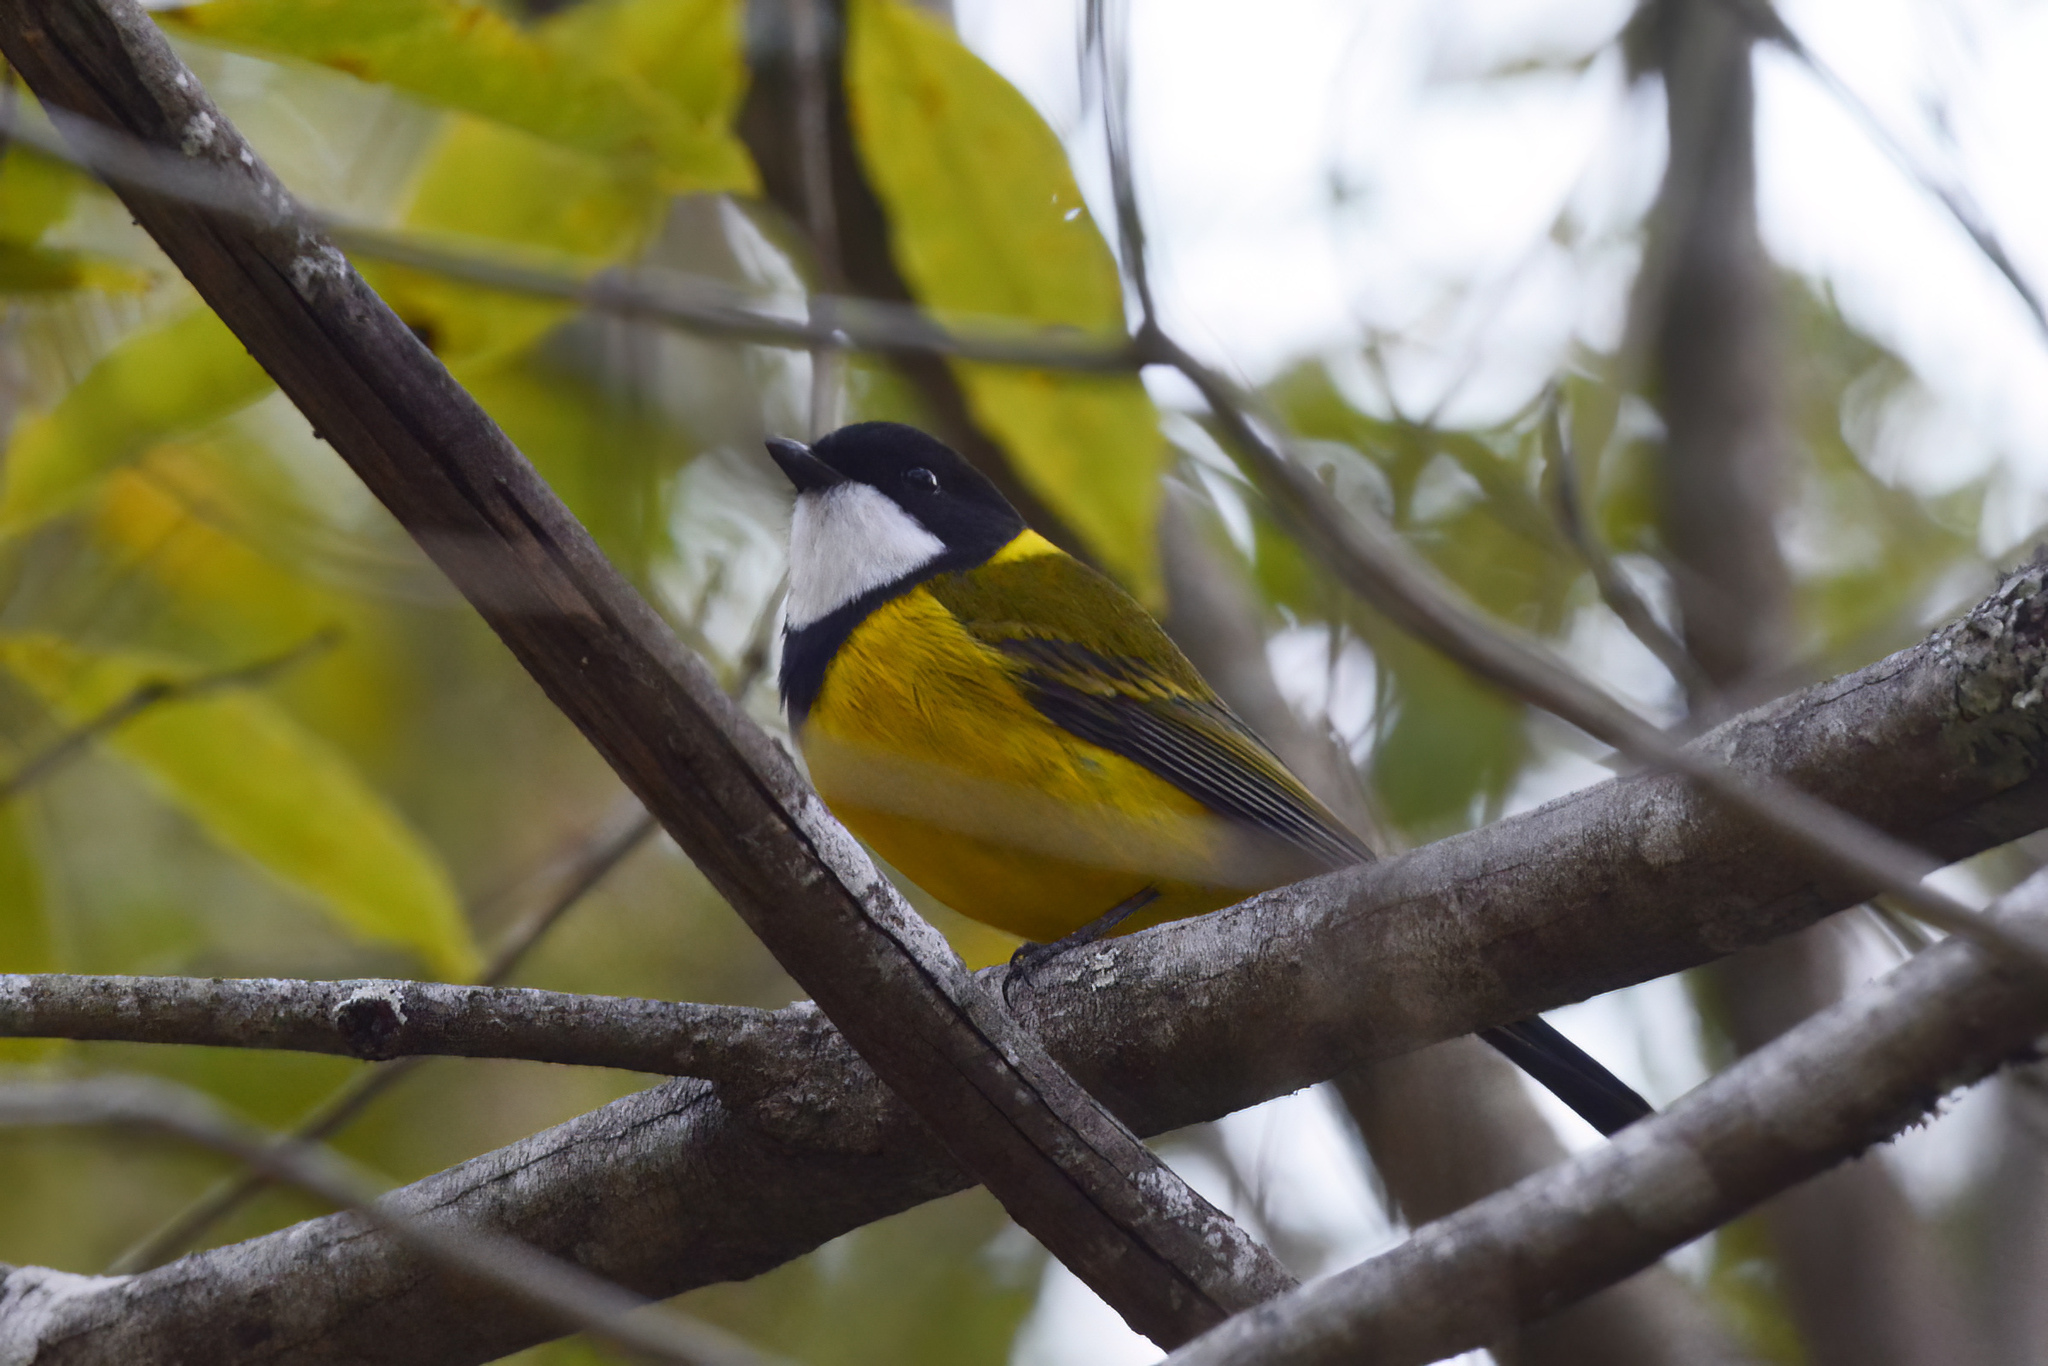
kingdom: Animalia
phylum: Chordata
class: Aves
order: Passeriformes
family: Pachycephalidae
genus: Pachycephala
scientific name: Pachycephala pectoralis
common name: Australian golden whistler
